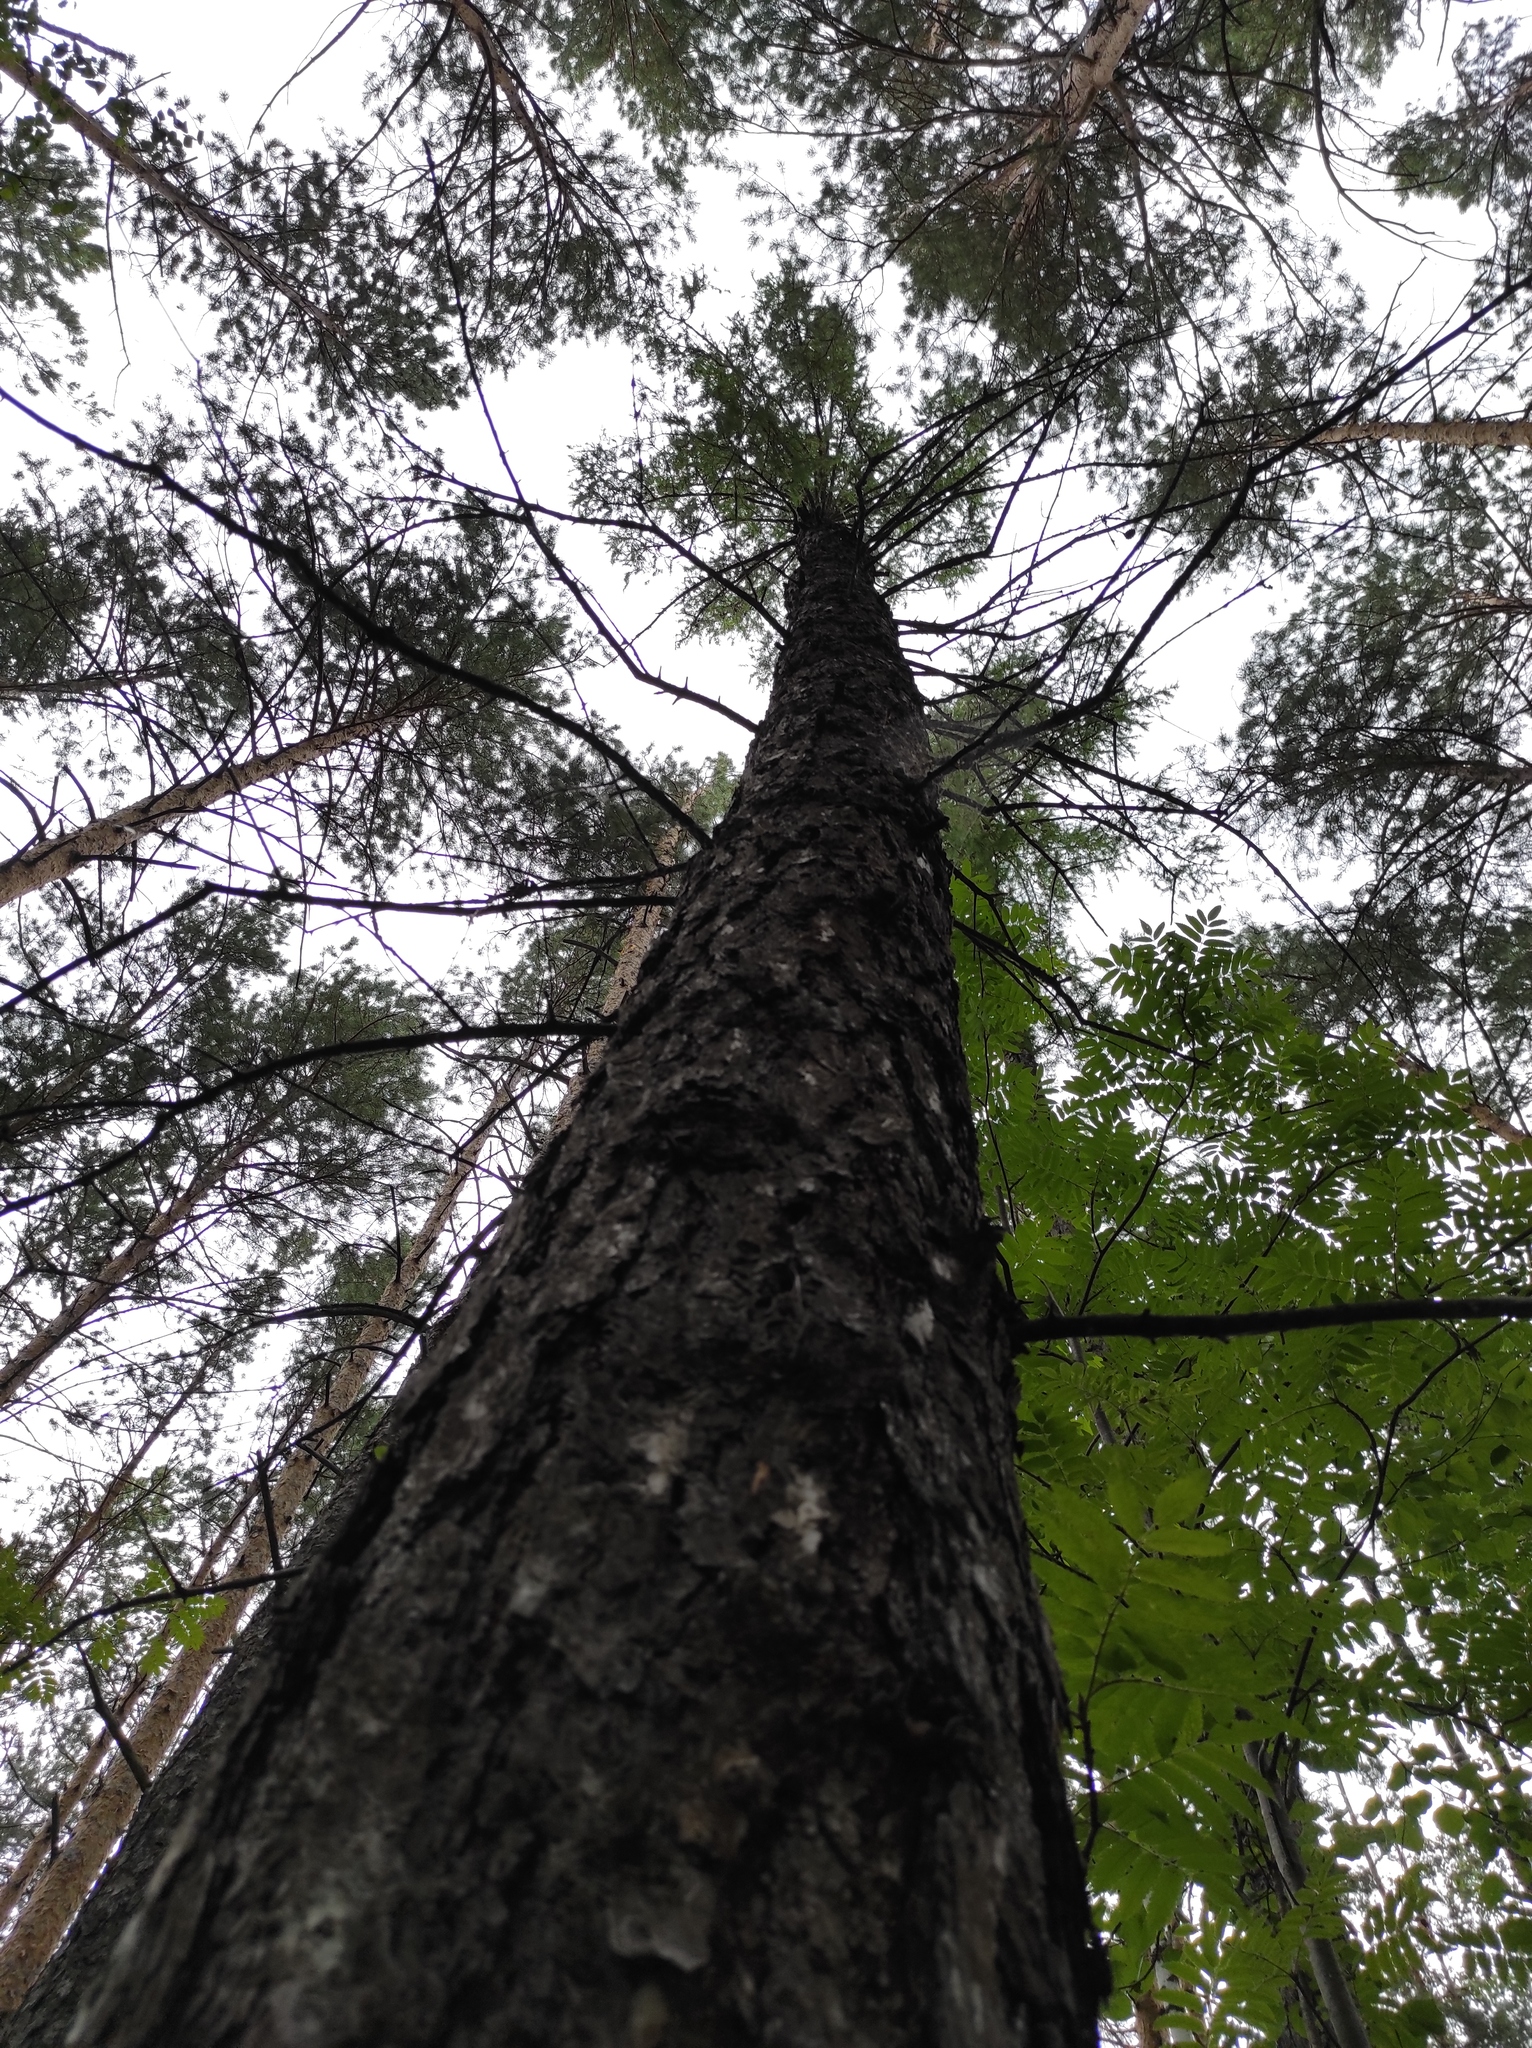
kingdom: Plantae
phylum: Tracheophyta
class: Pinopsida
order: Pinales
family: Pinaceae
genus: Larix
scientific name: Larix sibirica
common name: Siberian larch
